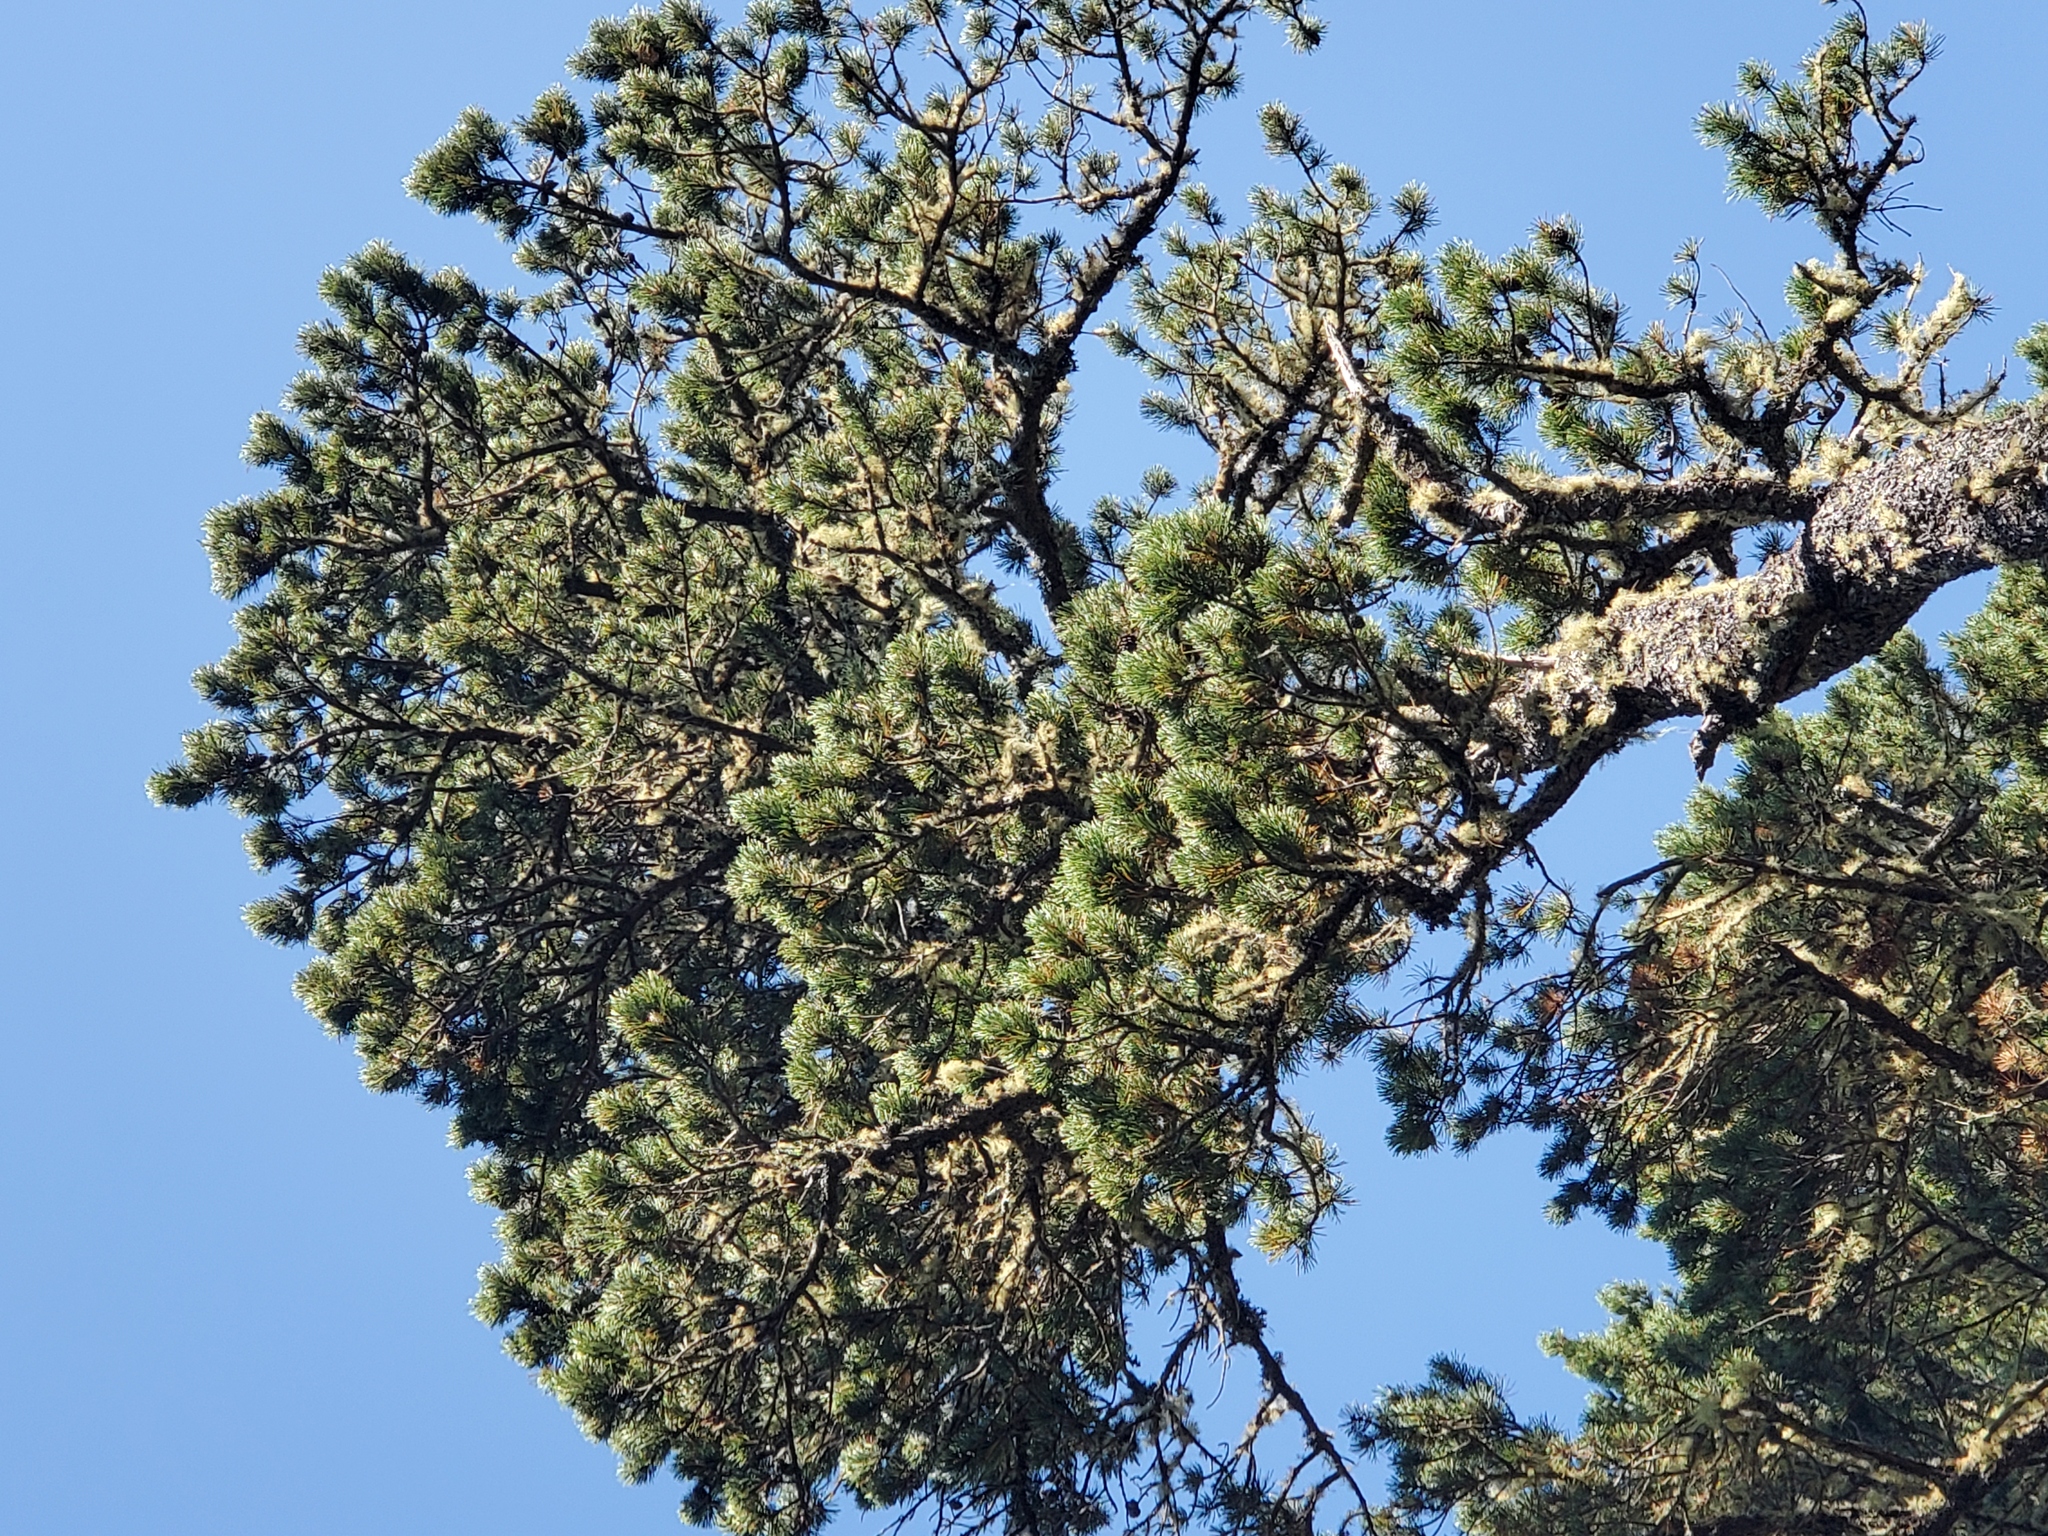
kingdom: Plantae
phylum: Tracheophyta
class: Pinopsida
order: Pinales
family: Pinaceae
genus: Pinus
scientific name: Pinus contorta
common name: Lodgepole pine
